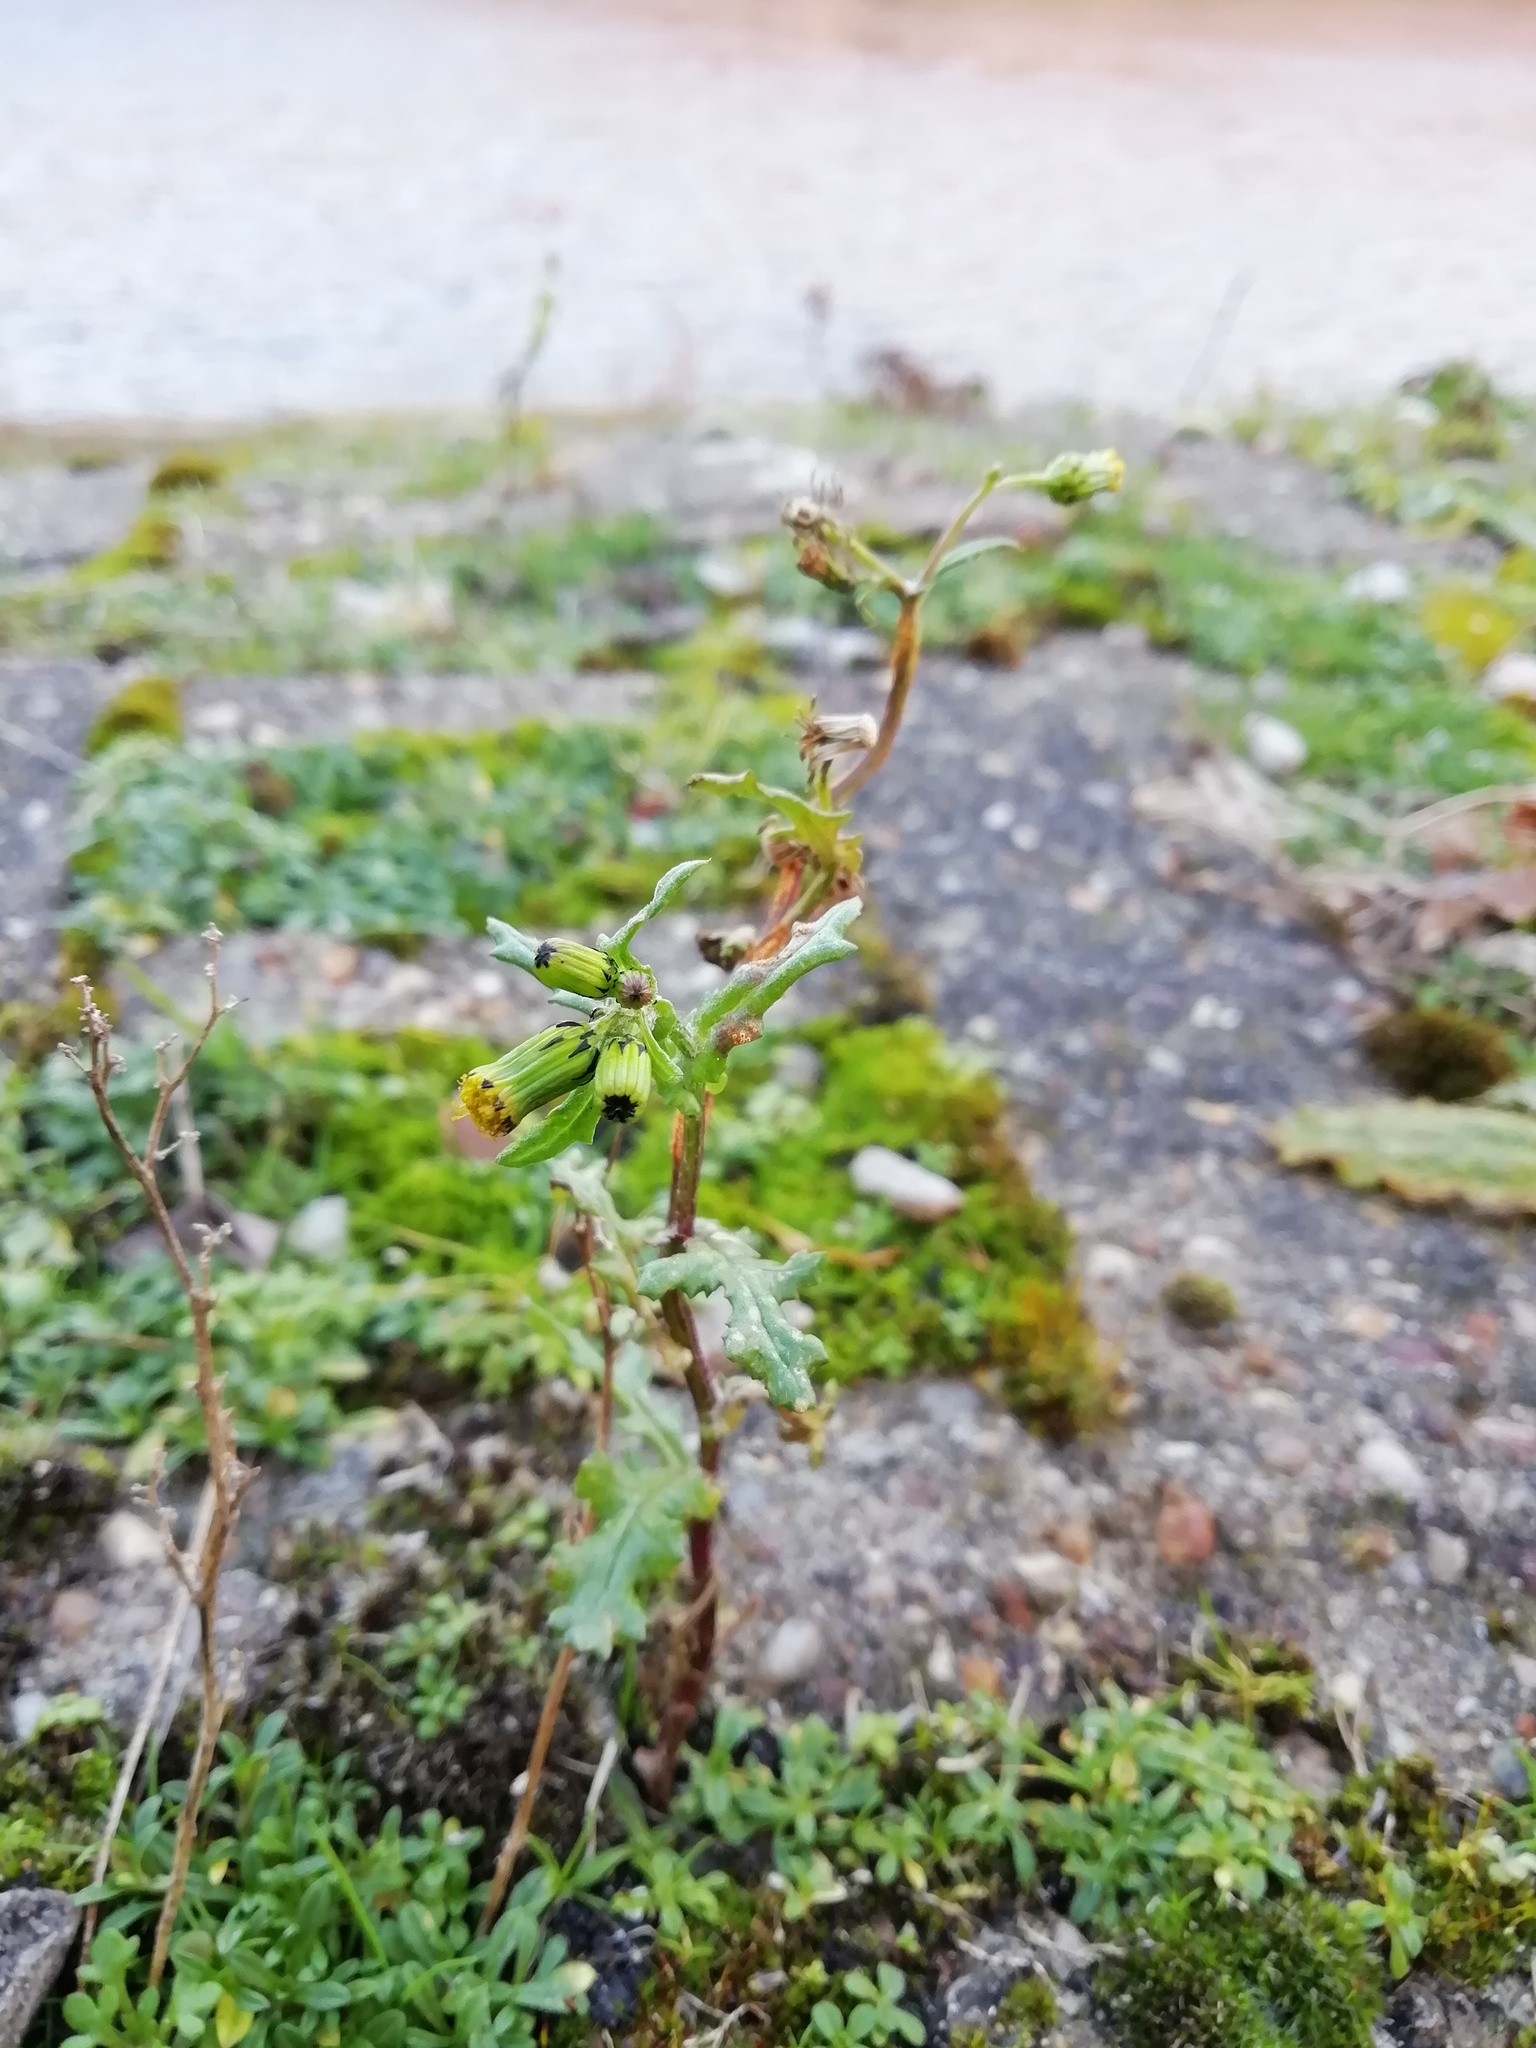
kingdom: Plantae
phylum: Tracheophyta
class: Magnoliopsida
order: Asterales
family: Asteraceae
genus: Senecio
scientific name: Senecio vulgaris
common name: Old-man-in-the-spring
